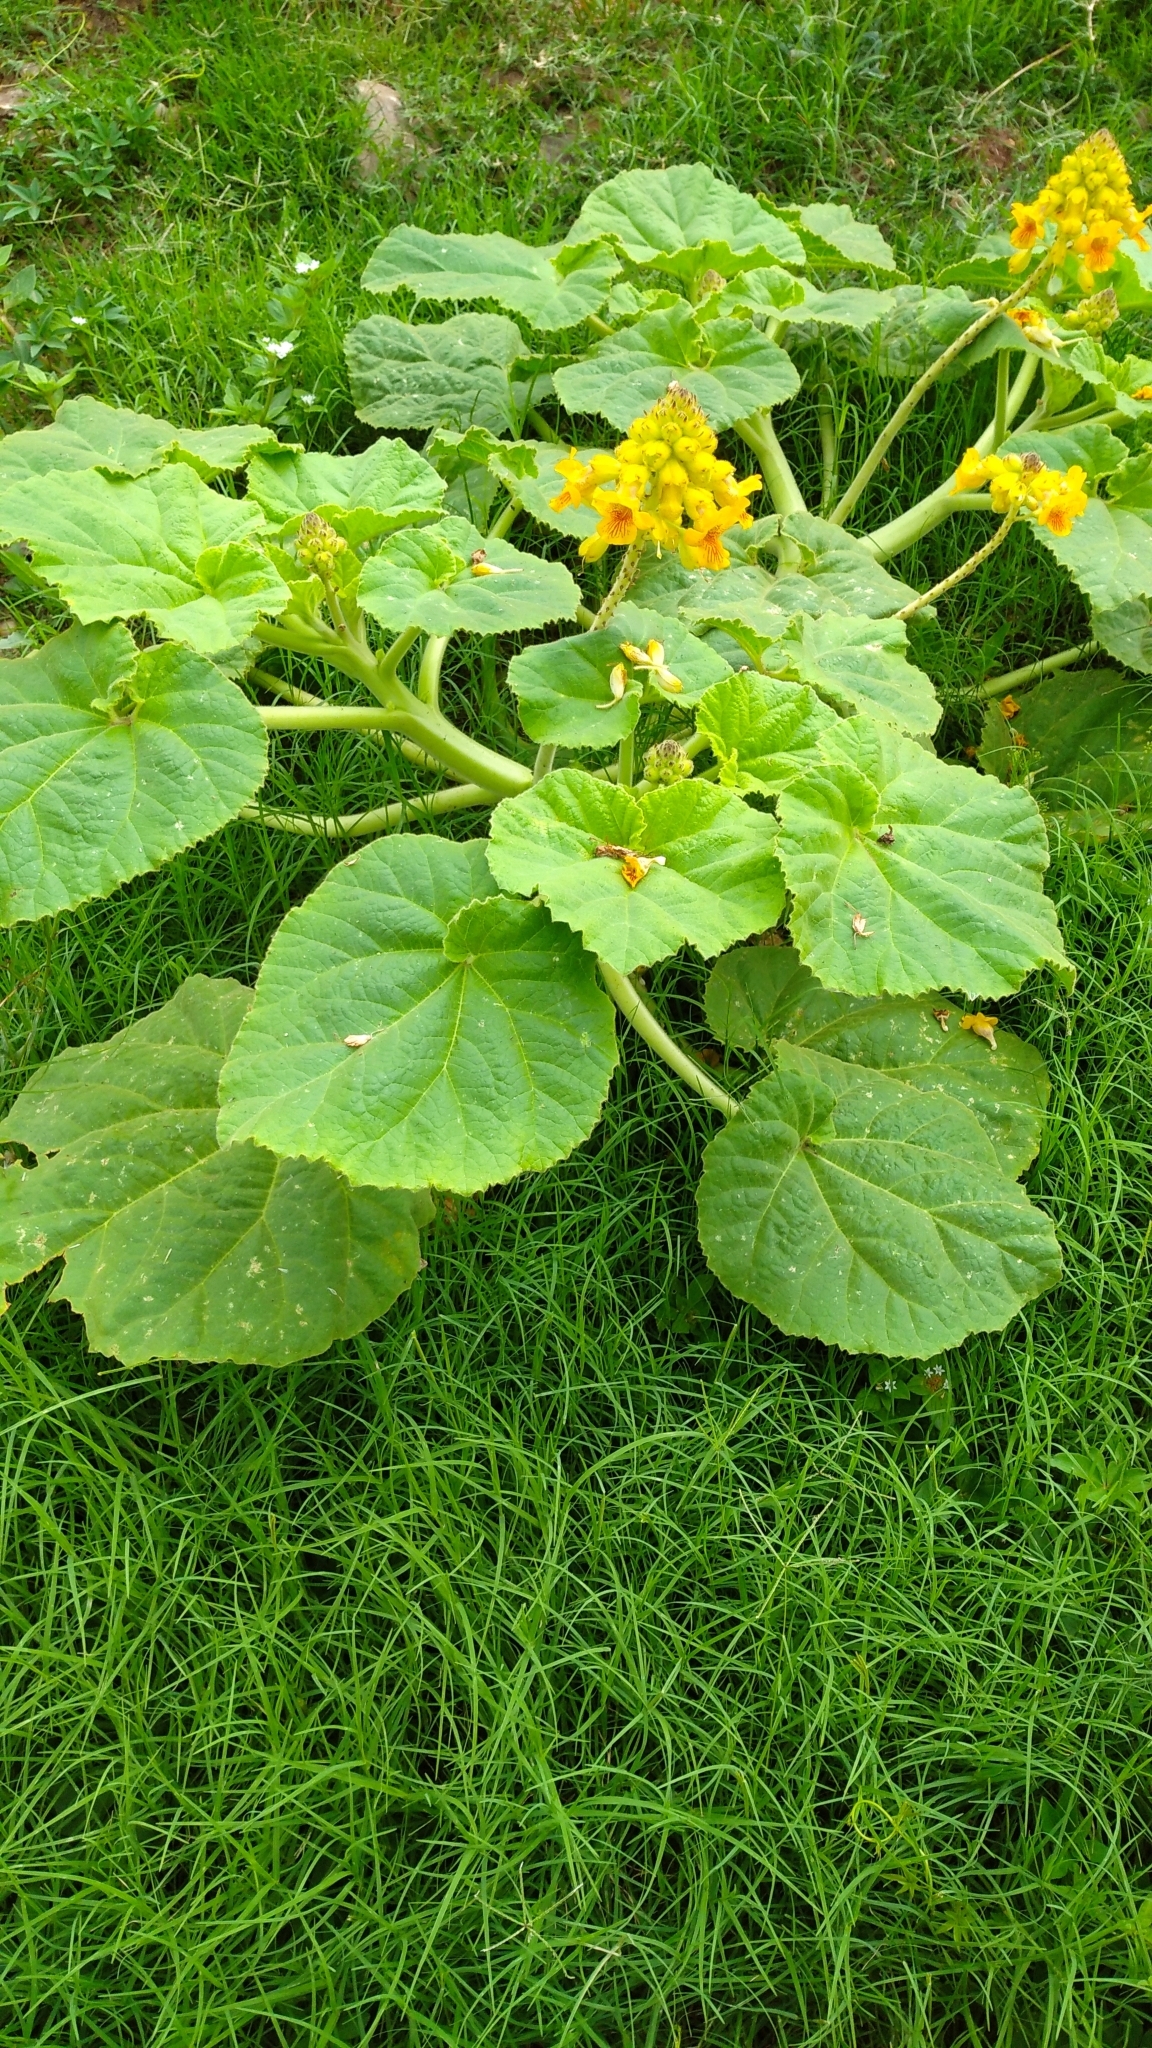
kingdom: Plantae
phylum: Tracheophyta
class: Magnoliopsida
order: Lamiales
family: Martyniaceae
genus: Ibicella
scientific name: Ibicella lutea
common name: Yellow unicorn-plant
